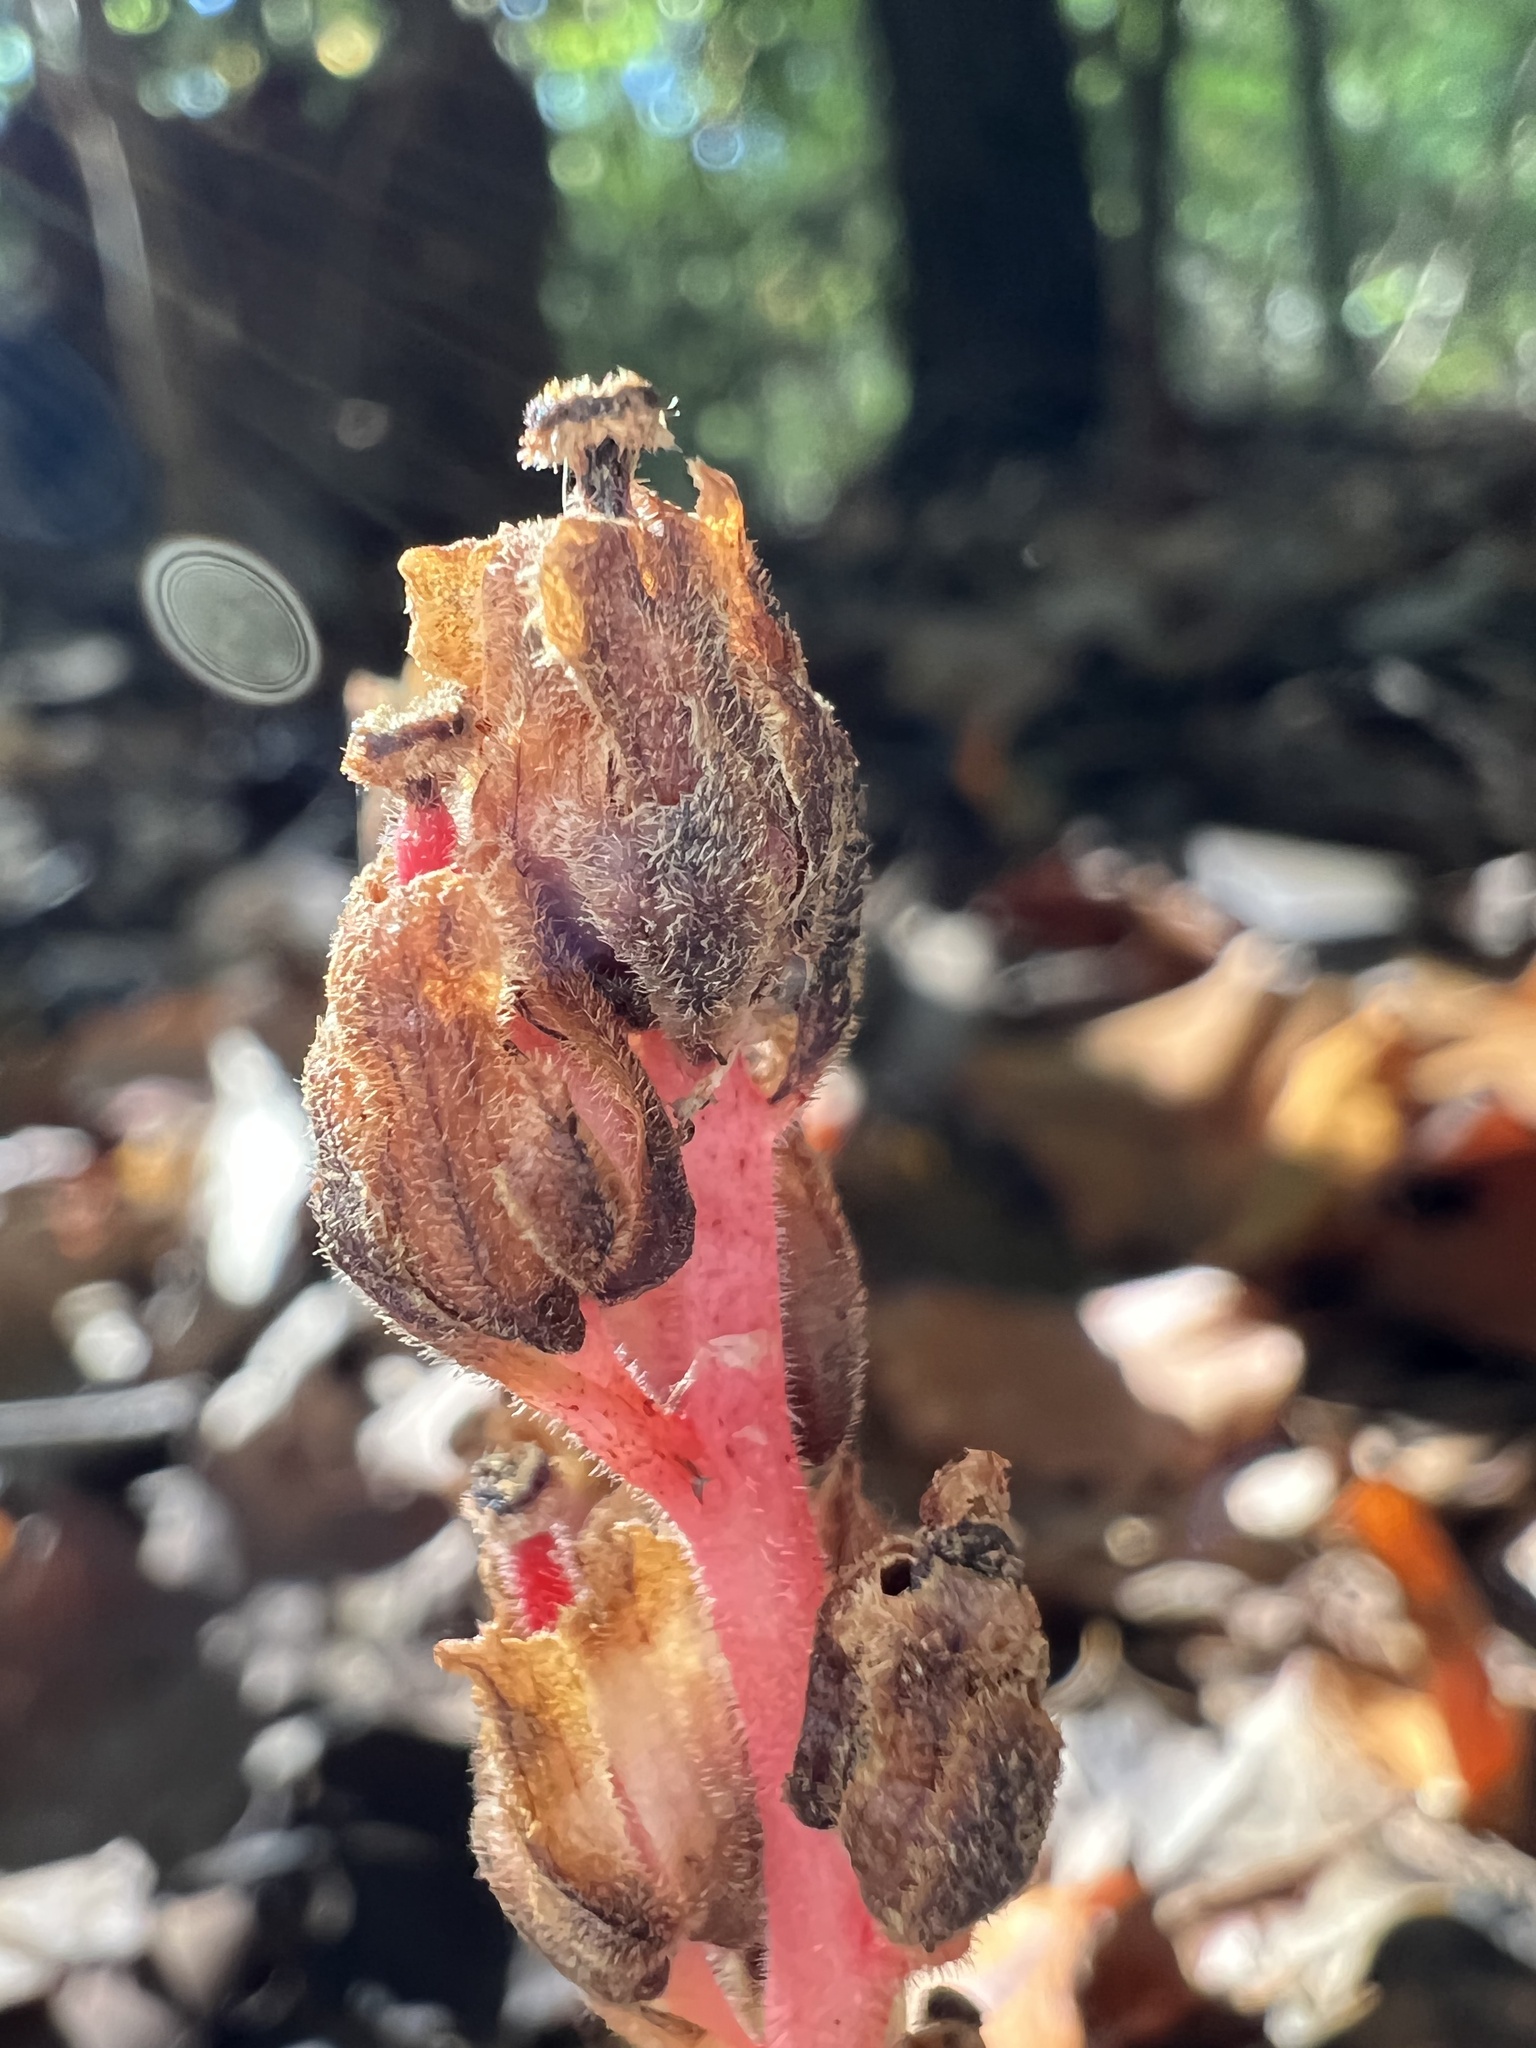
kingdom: Plantae
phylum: Tracheophyta
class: Magnoliopsida
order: Ericales
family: Ericaceae
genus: Hypopitys
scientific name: Hypopitys monotropa
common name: Yellow bird's-nest
